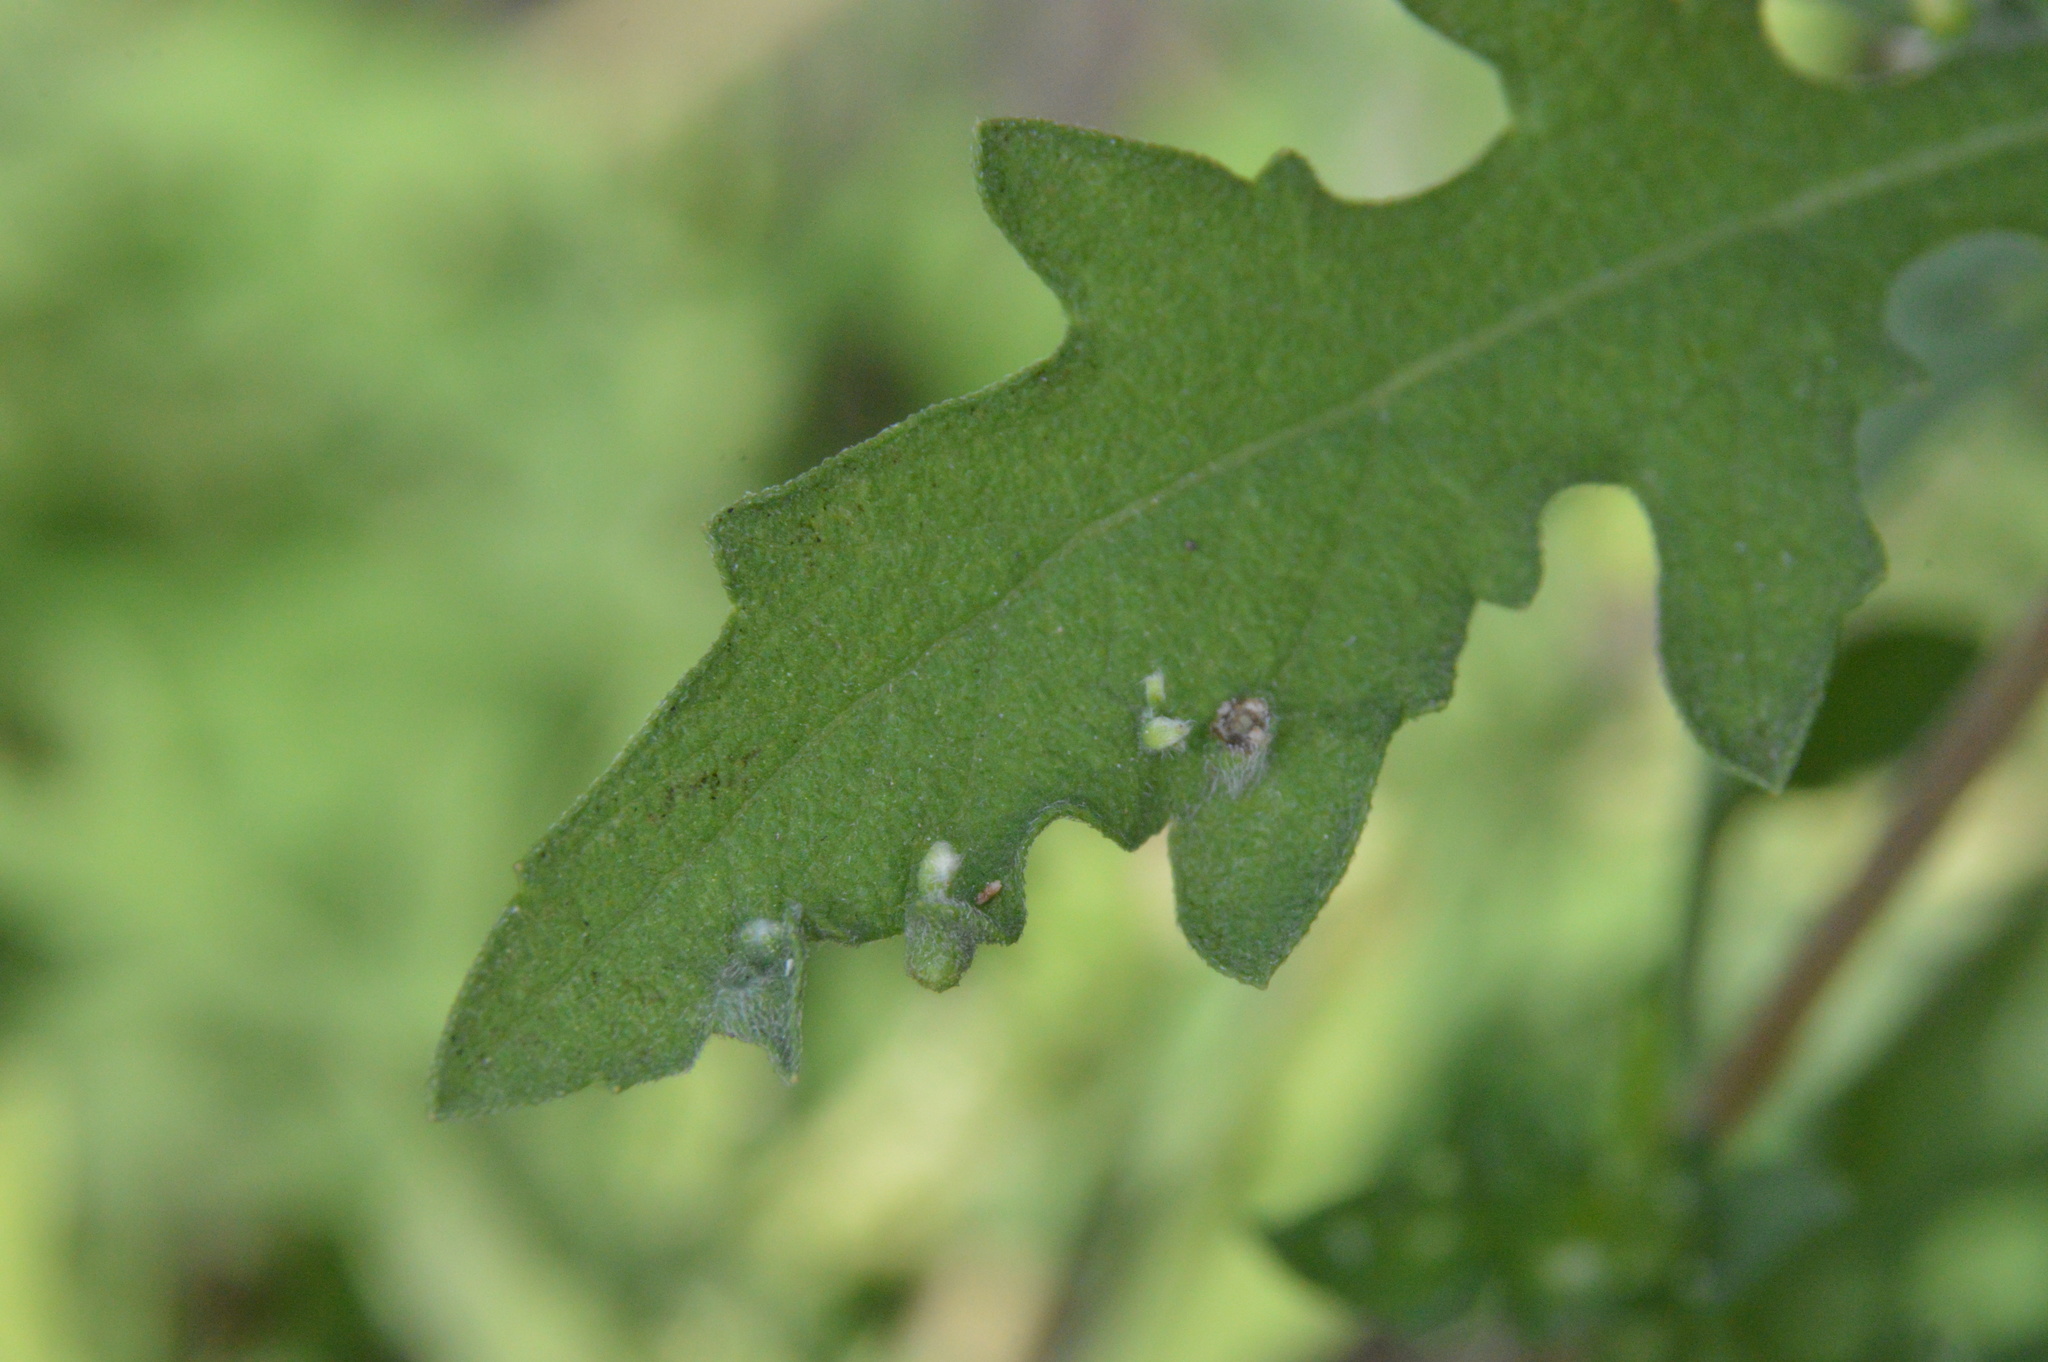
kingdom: Animalia
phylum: Arthropoda
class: Arachnida
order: Trombidiformes
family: Eriophyidae
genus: Aceria
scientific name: Aceria
